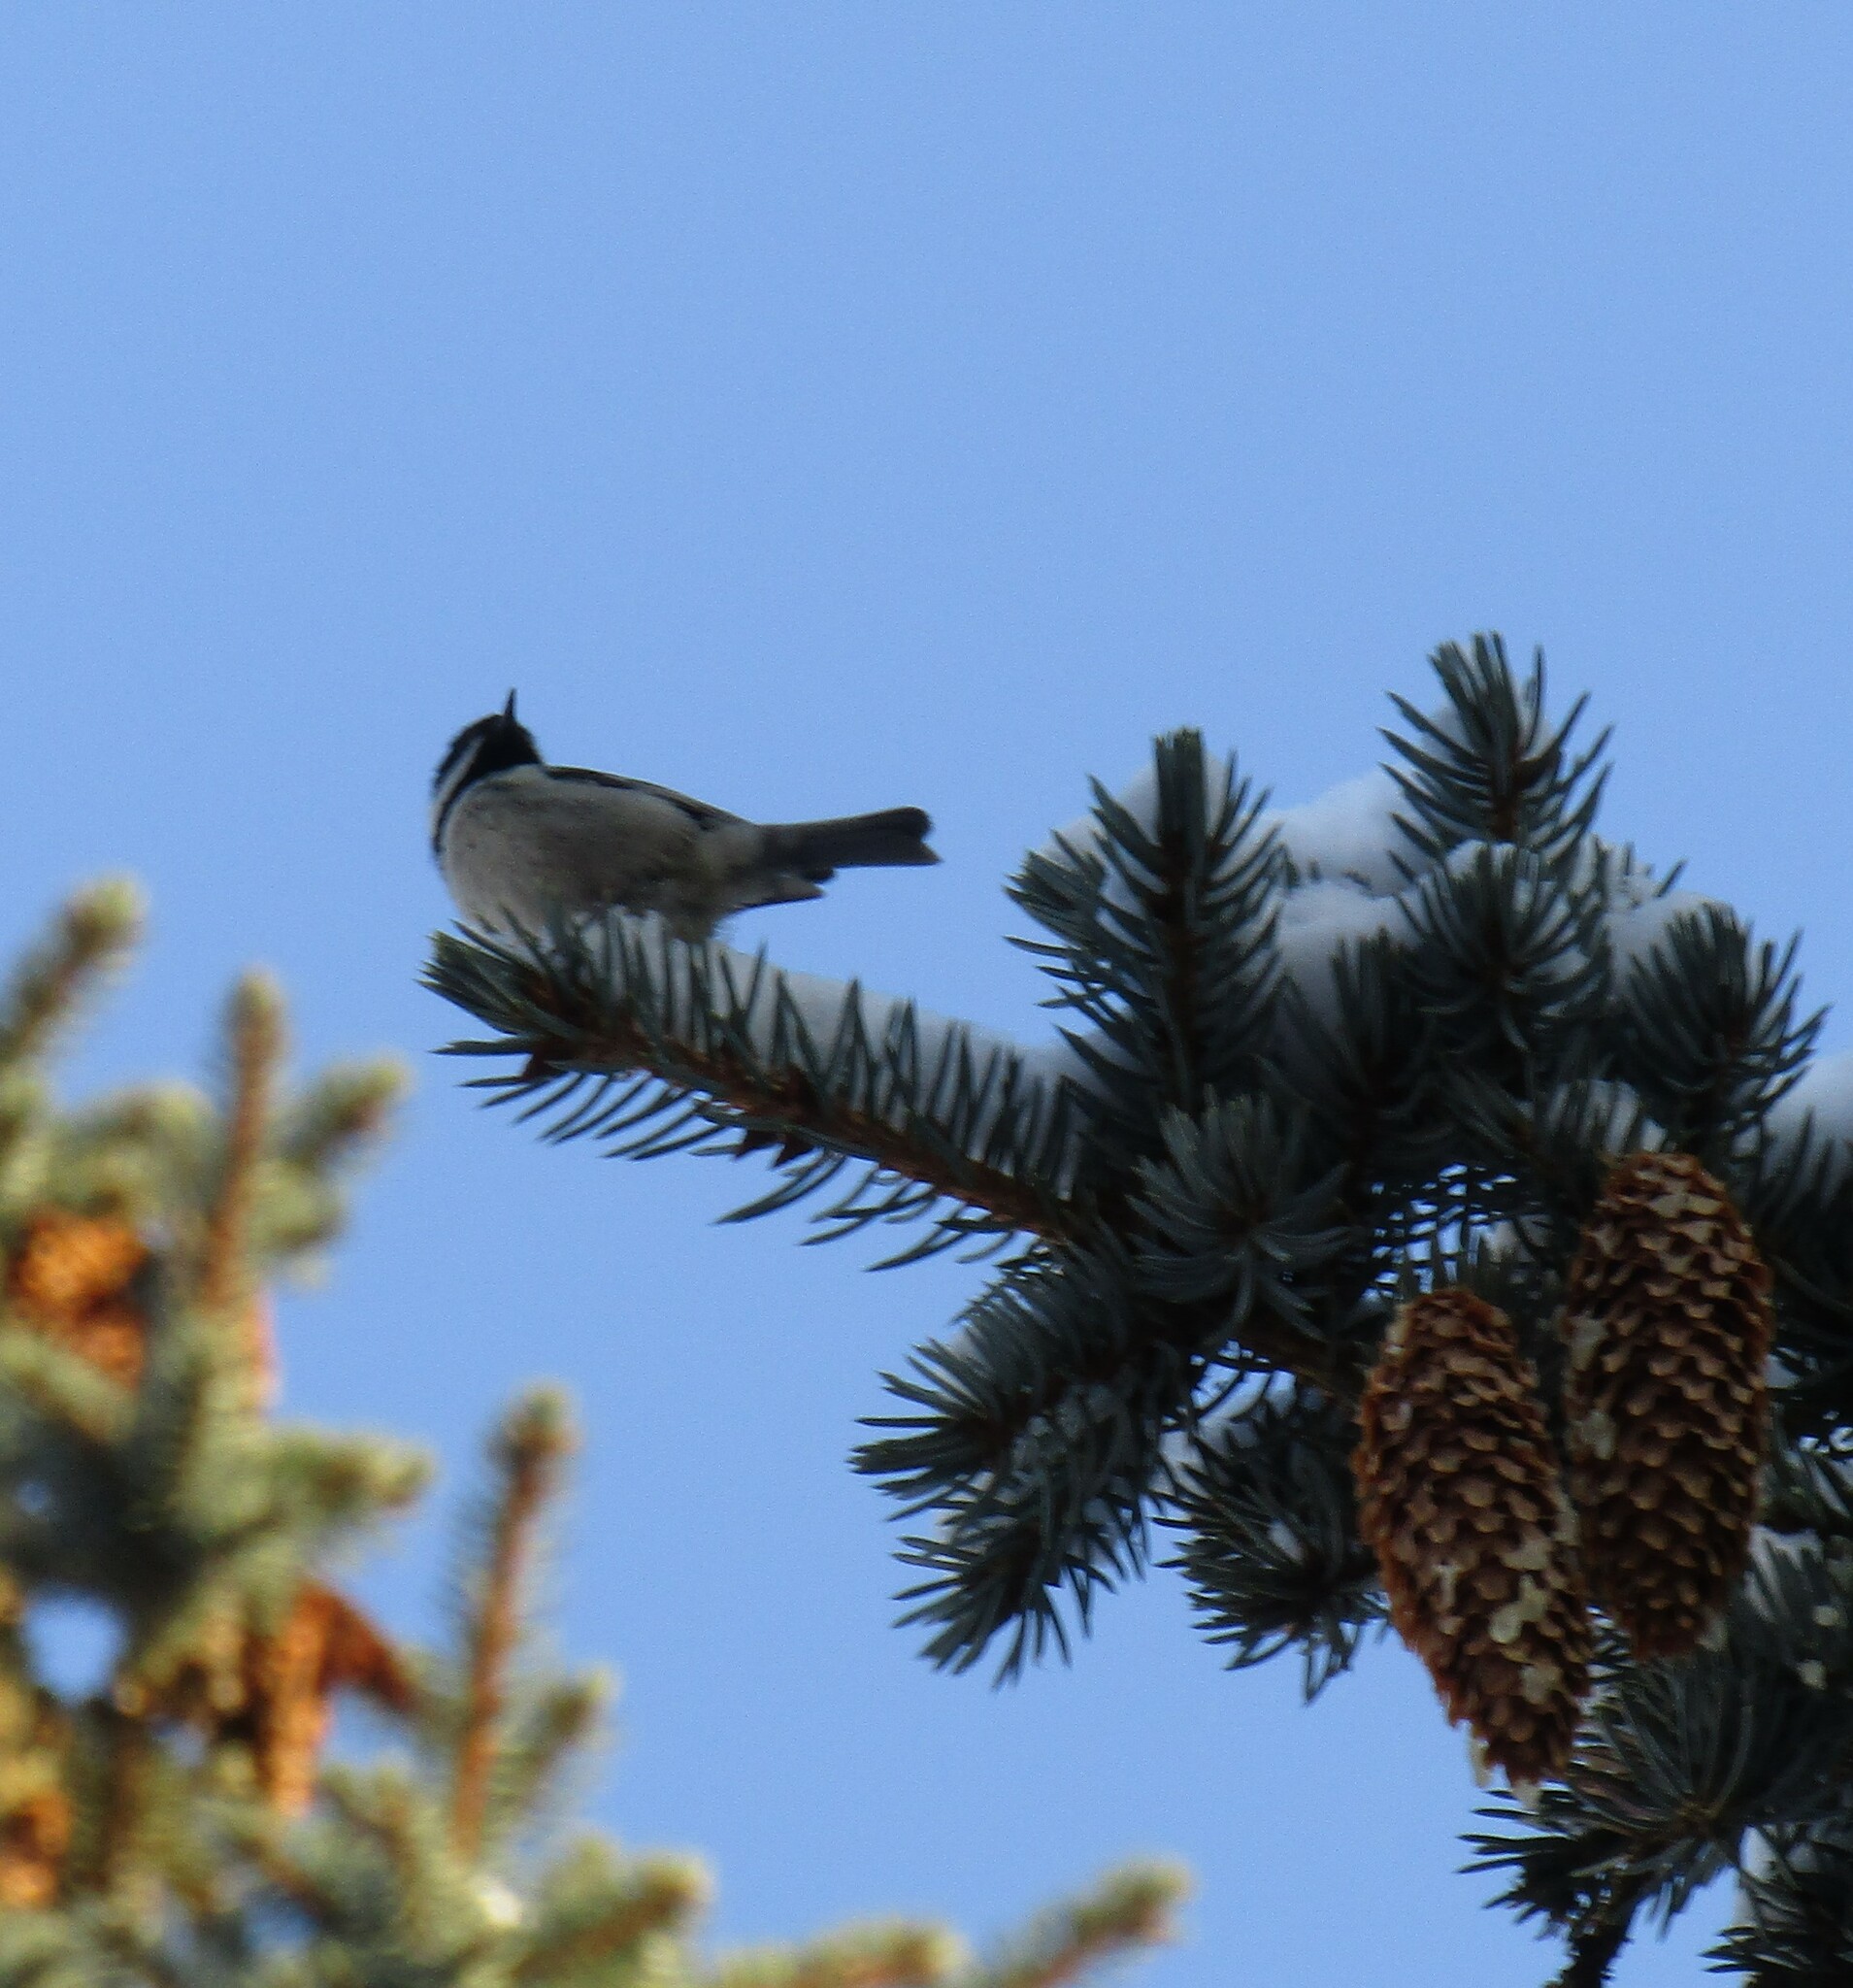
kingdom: Animalia
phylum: Chordata
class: Aves
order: Passeriformes
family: Paridae
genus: Periparus
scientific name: Periparus ater
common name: Coal tit
